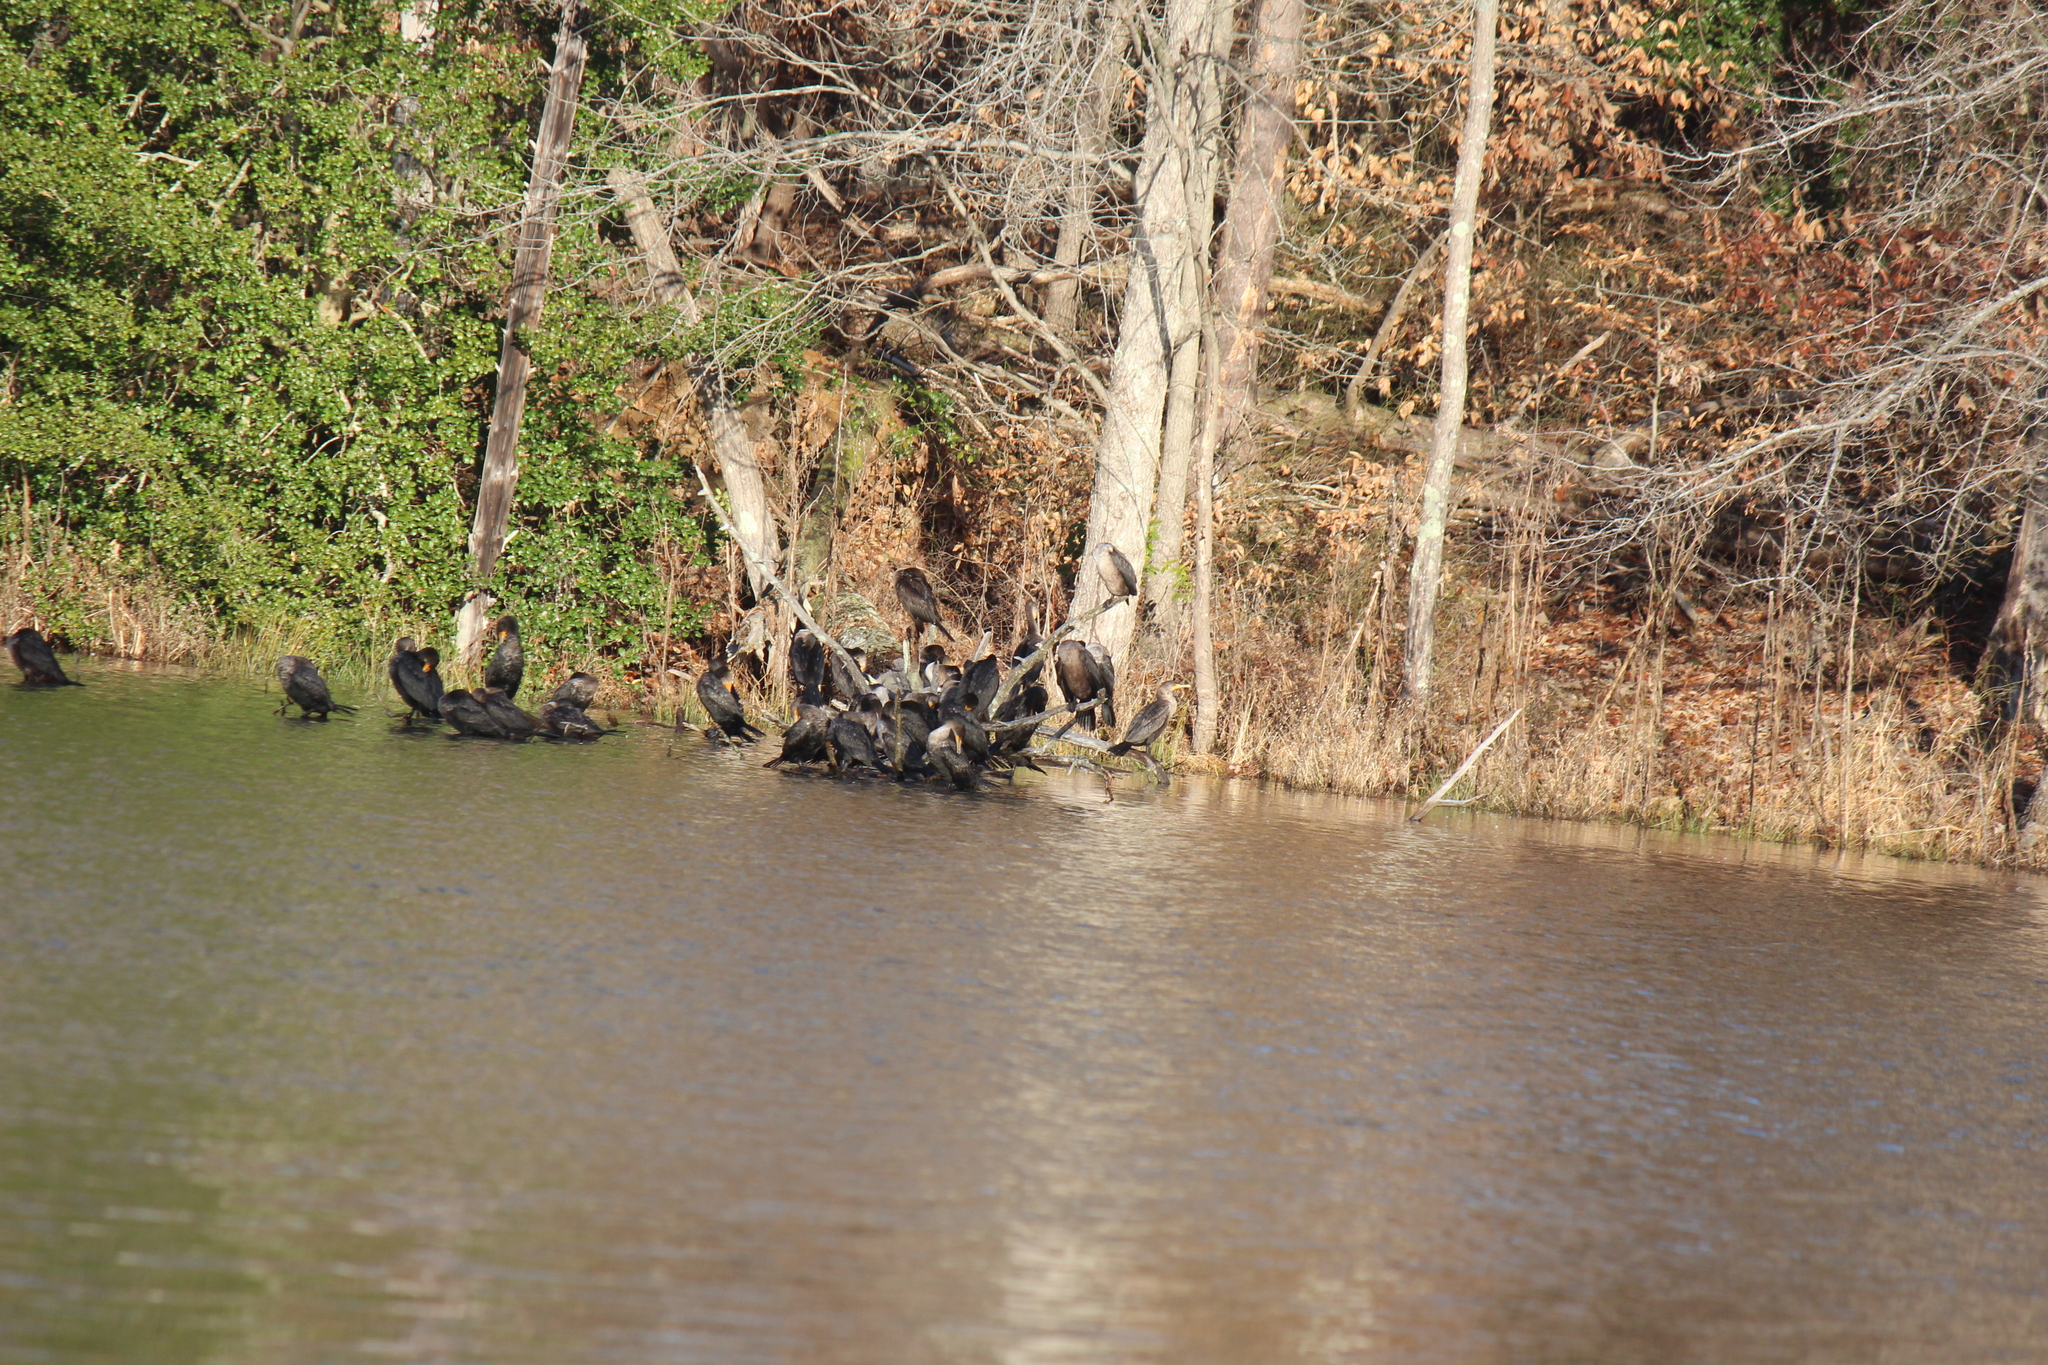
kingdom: Animalia
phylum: Chordata
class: Aves
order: Suliformes
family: Phalacrocoracidae
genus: Phalacrocorax
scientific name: Phalacrocorax auritus
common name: Double-crested cormorant
